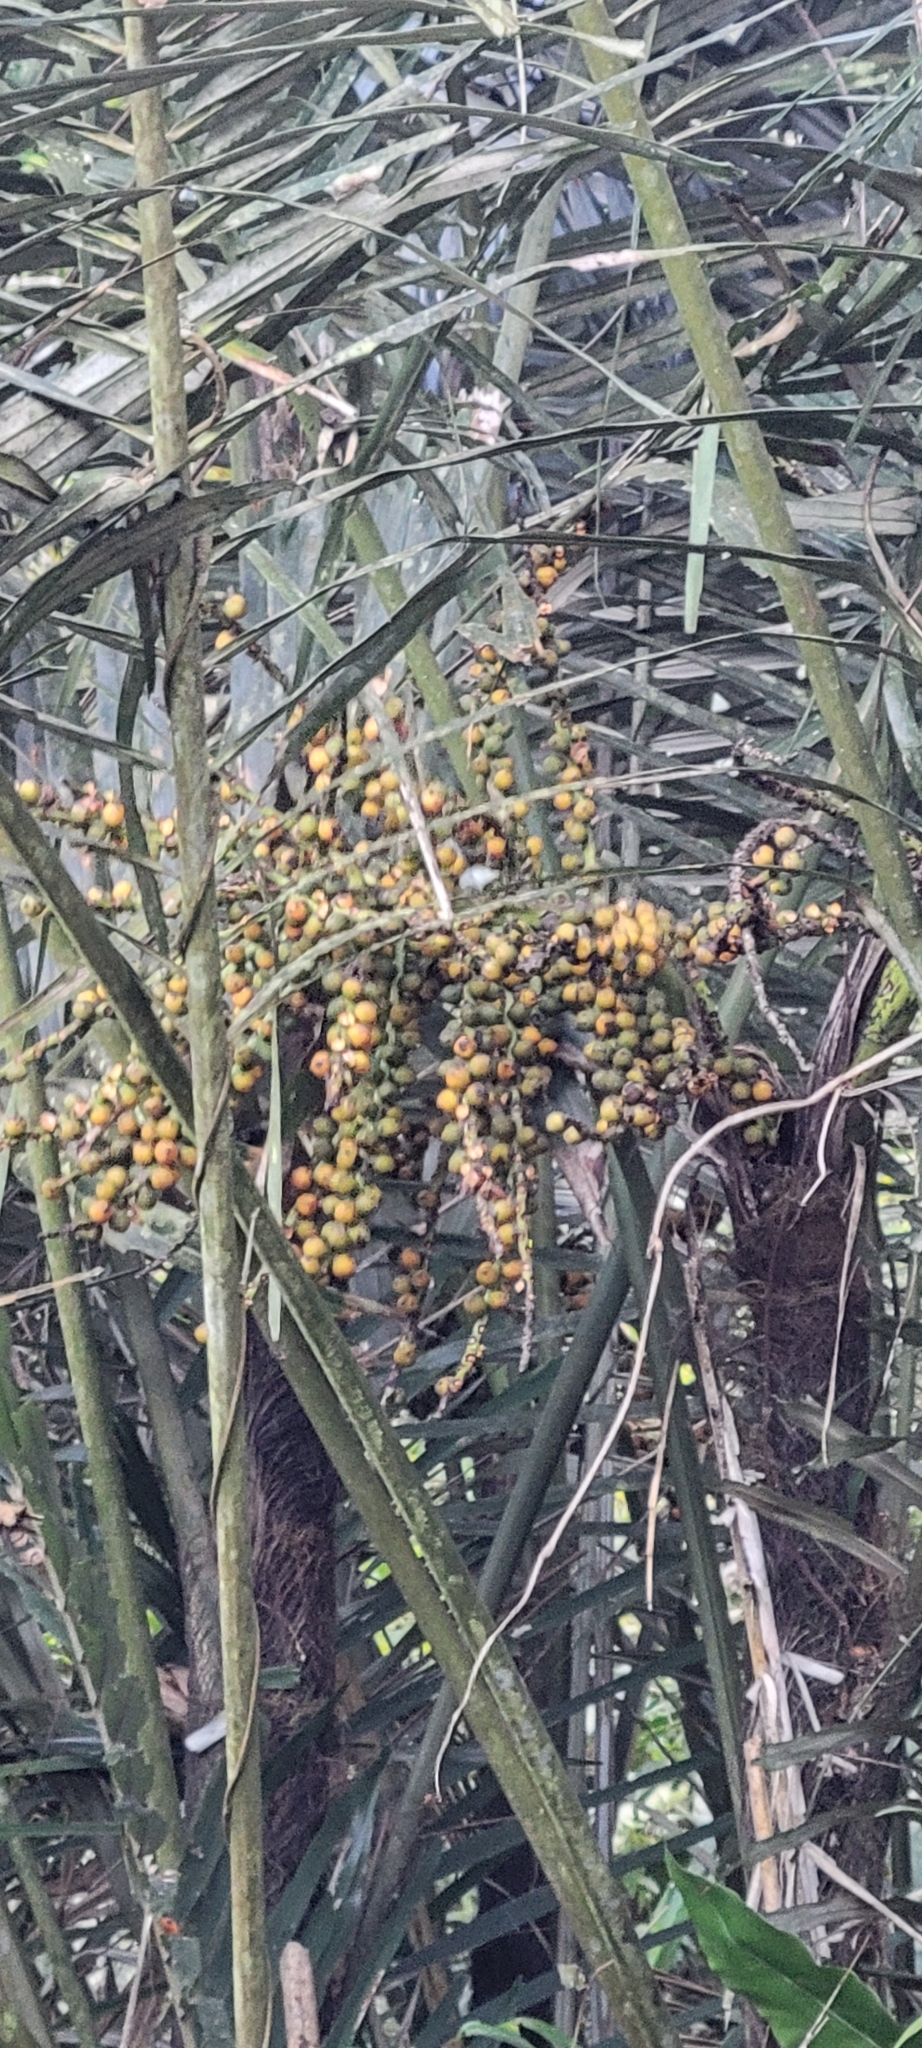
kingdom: Plantae
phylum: Tracheophyta
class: Liliopsida
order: Arecales
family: Arecaceae
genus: Arenga
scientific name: Arenga engleri
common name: Formosan sugar palm
